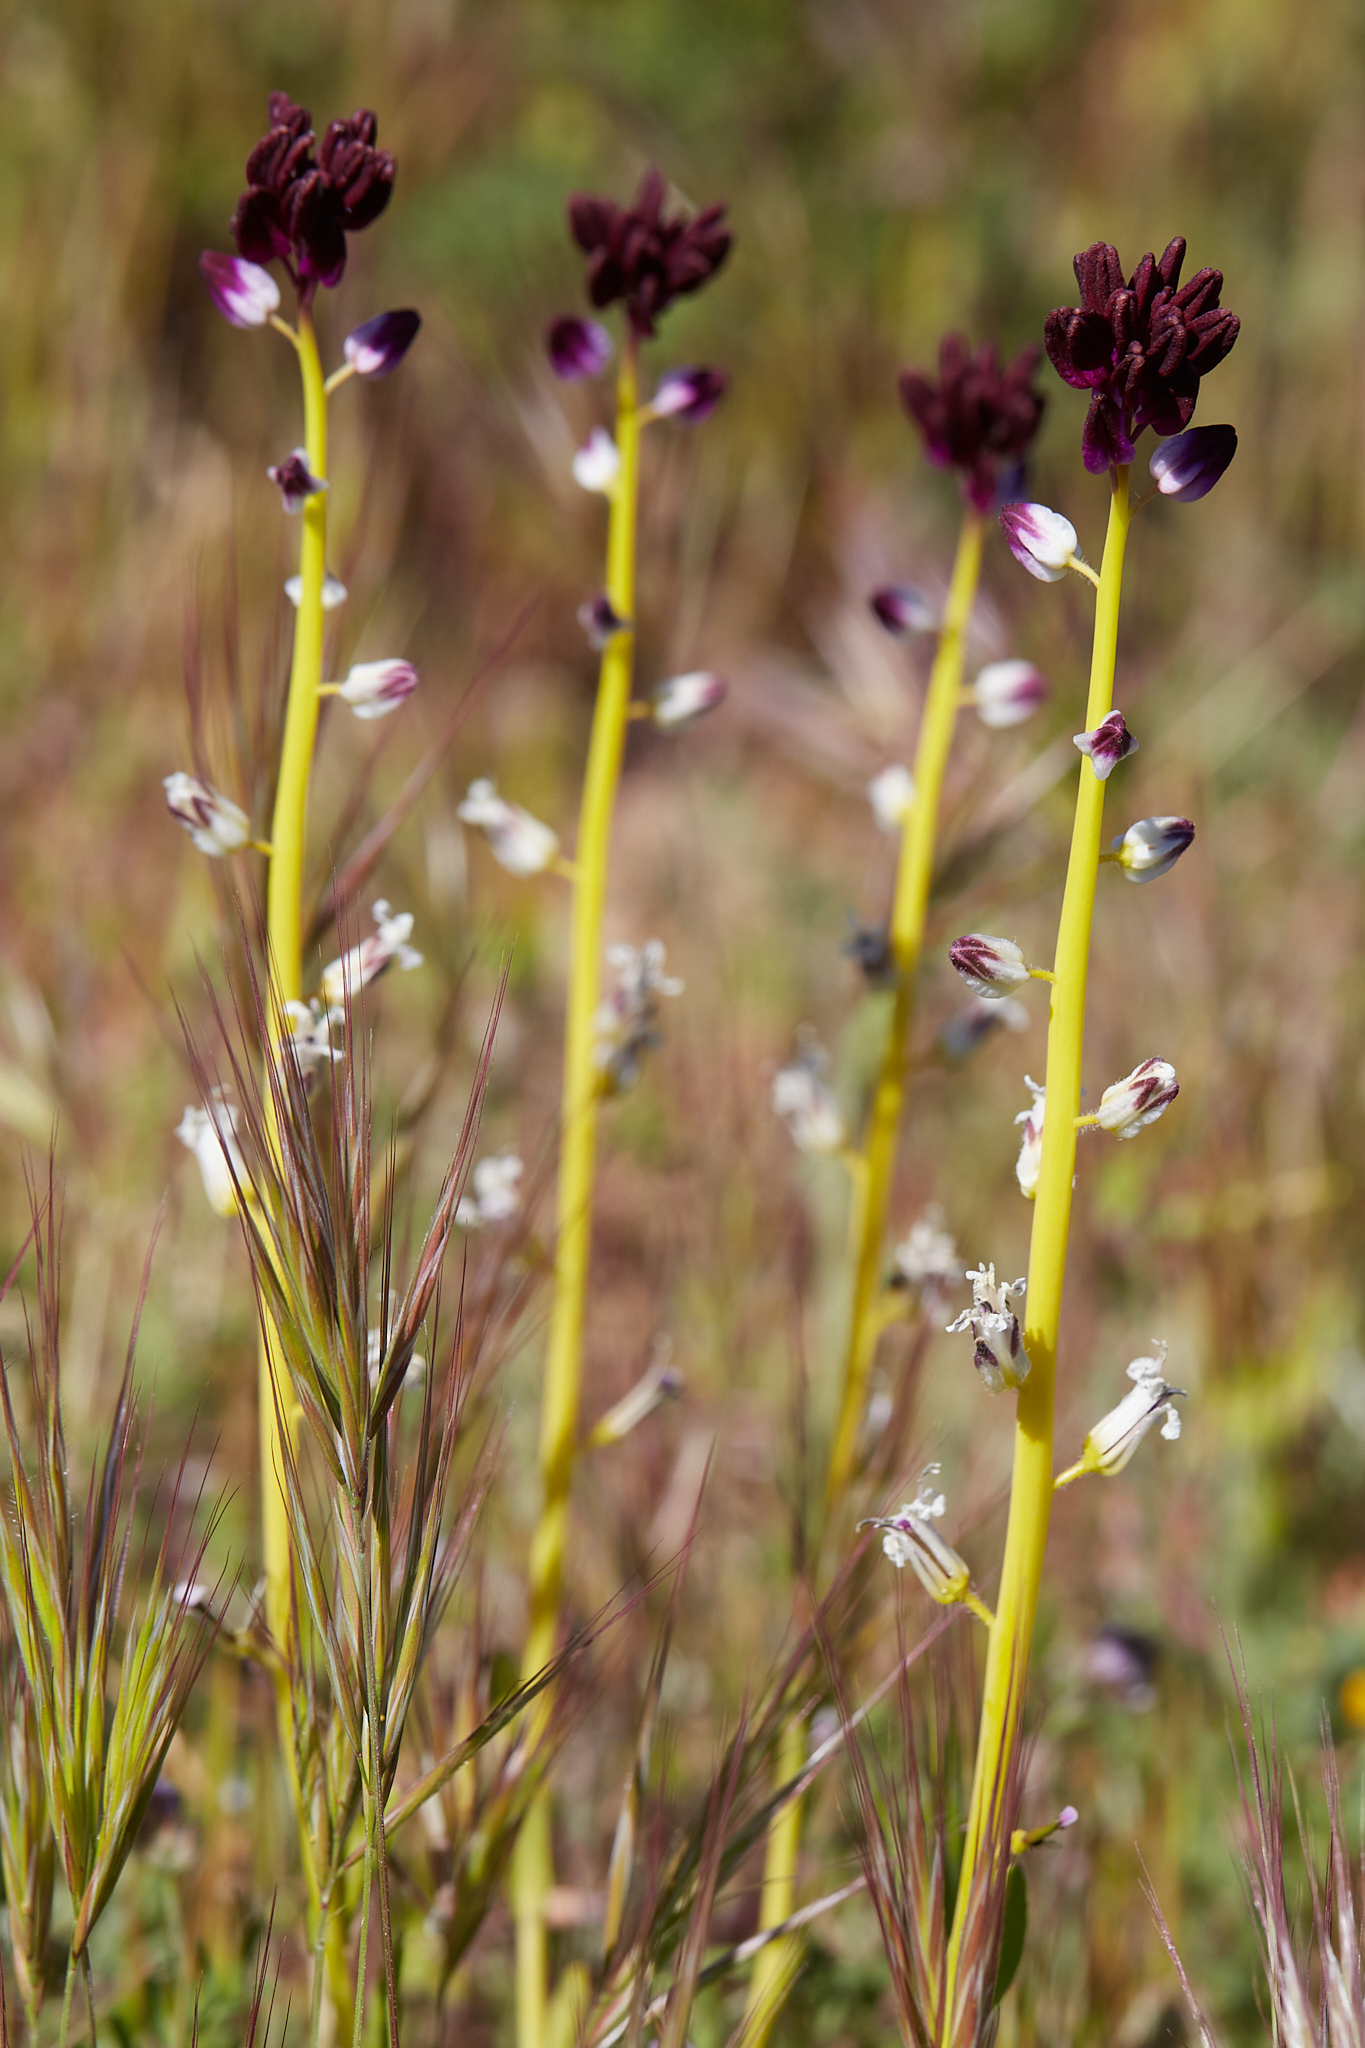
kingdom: Plantae
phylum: Tracheophyta
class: Magnoliopsida
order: Brassicales
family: Brassicaceae
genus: Streptanthus
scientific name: Streptanthus inflatus
